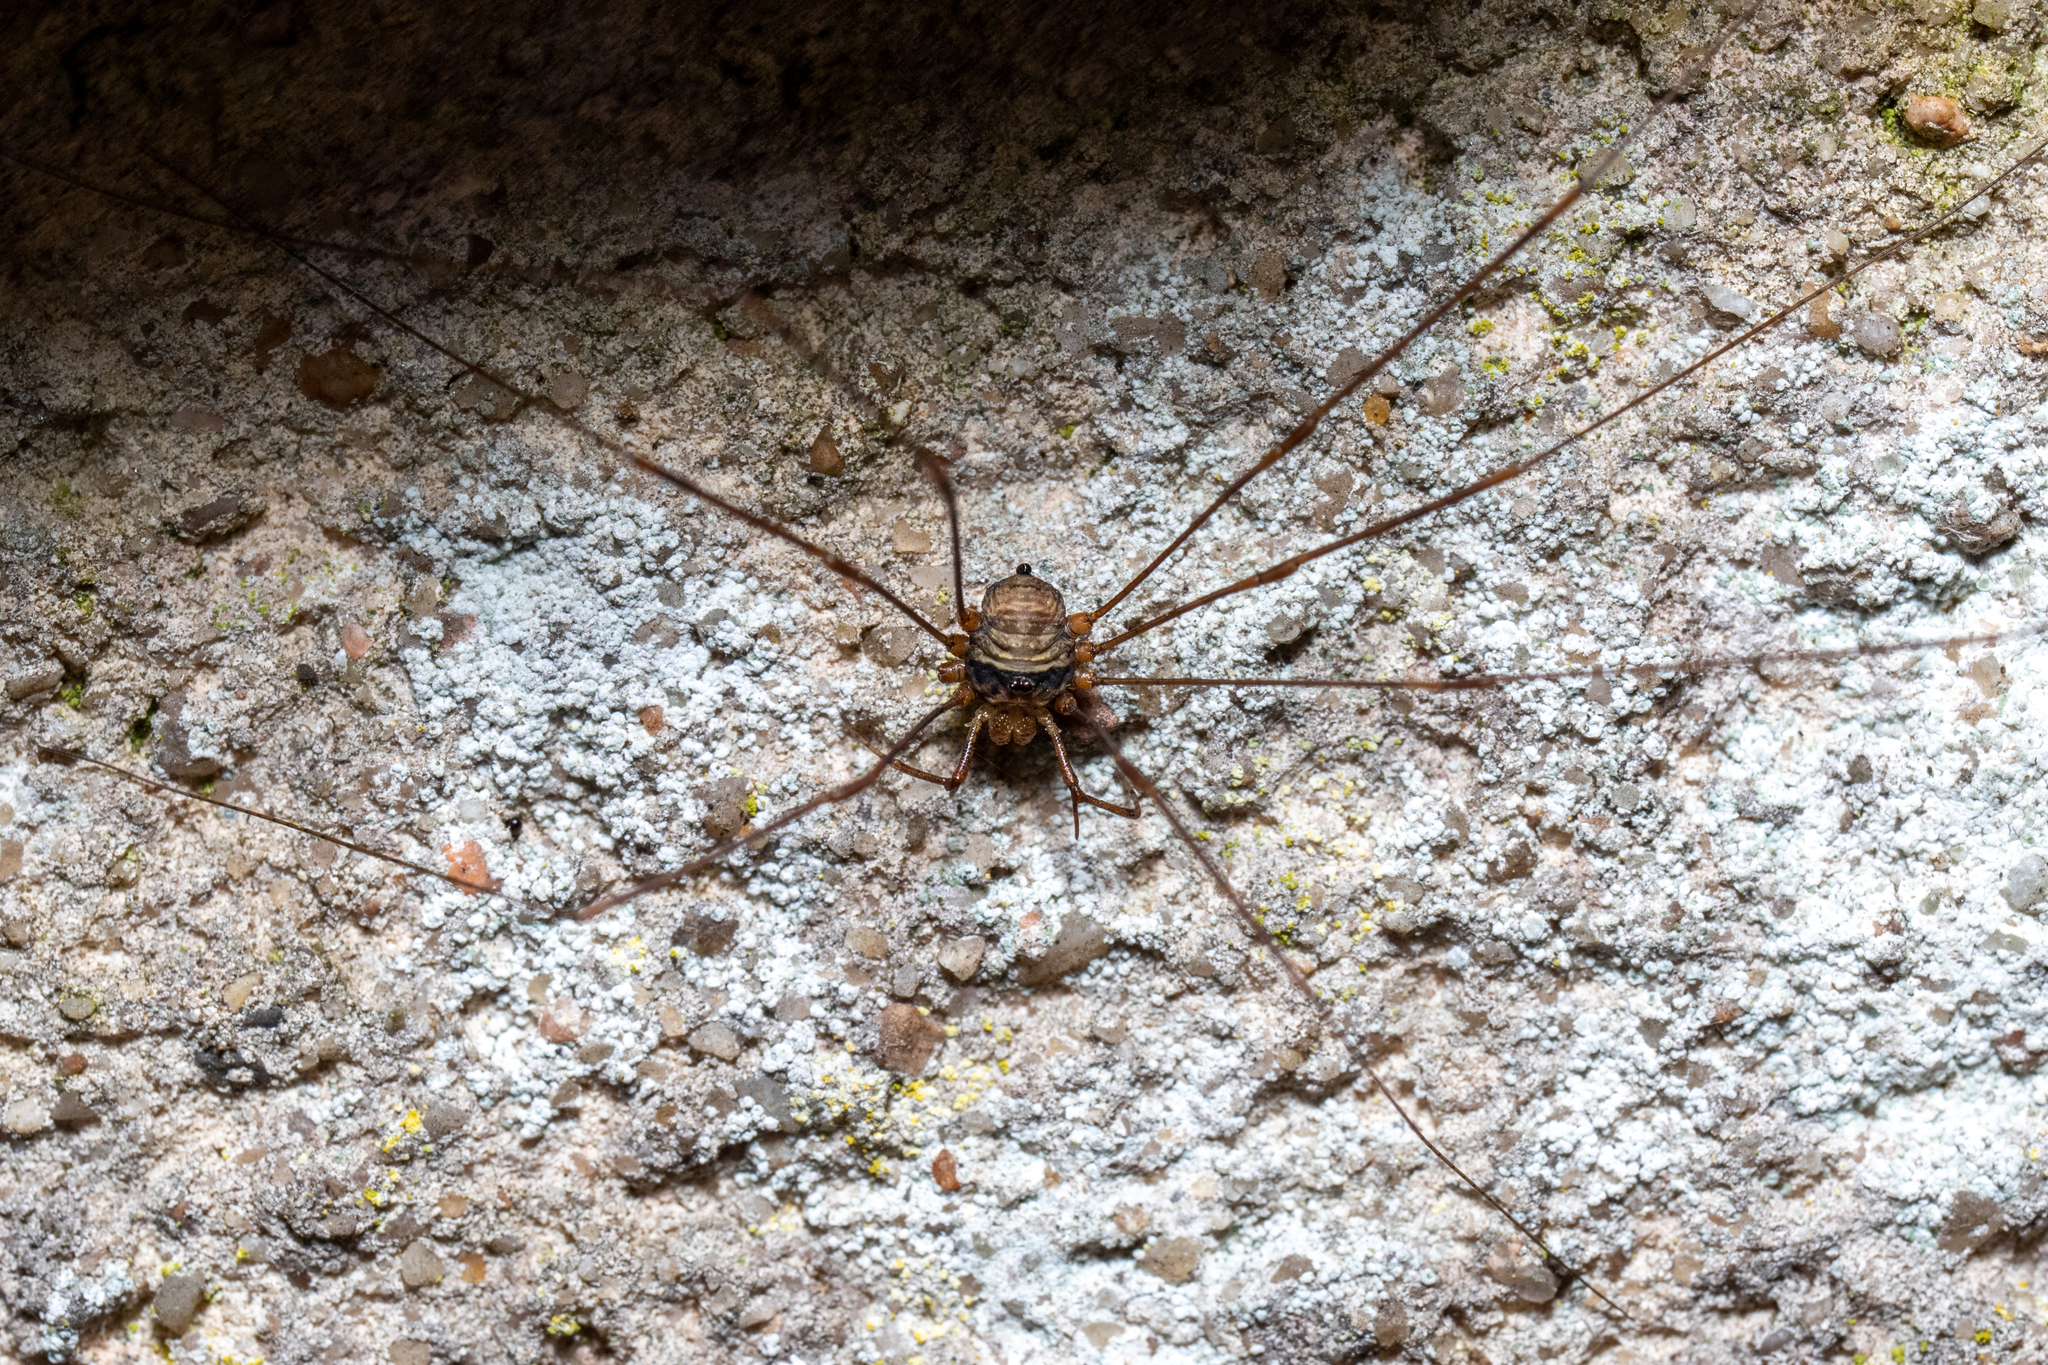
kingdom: Animalia
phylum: Arthropoda
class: Arachnida
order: Opiliones
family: Phalangiidae
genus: Dicranopalpus
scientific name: Dicranopalpus ramosus
